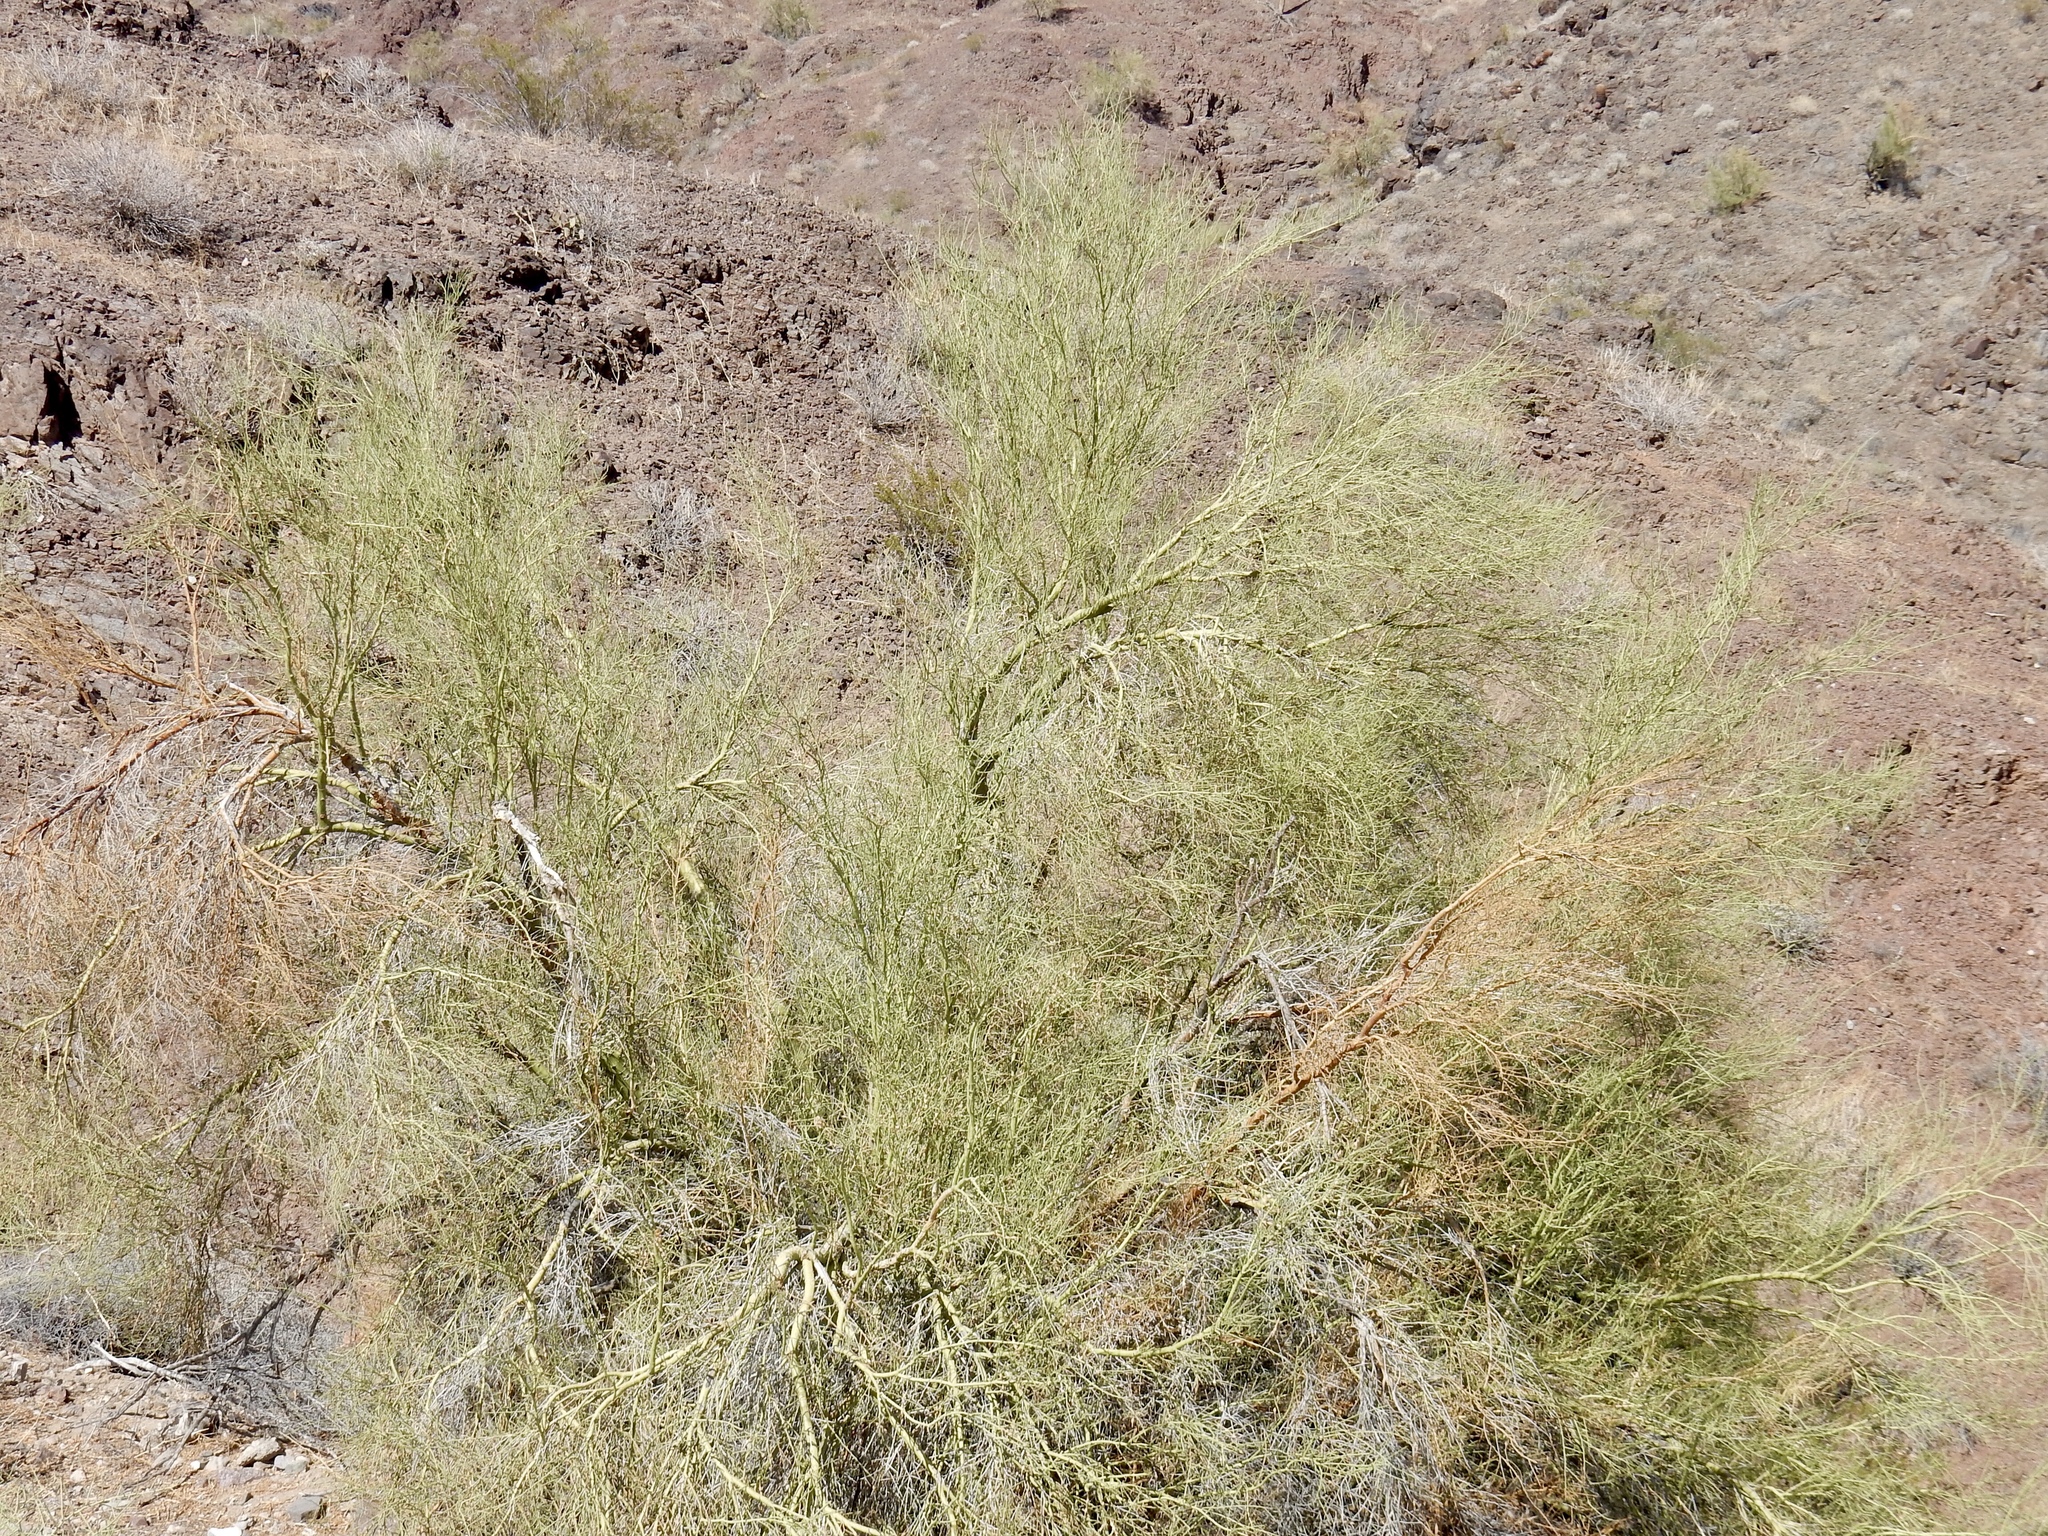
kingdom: Plantae
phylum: Tracheophyta
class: Magnoliopsida
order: Fabales
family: Fabaceae
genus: Parkinsonia
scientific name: Parkinsonia microphylla
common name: Yellow paloverde
